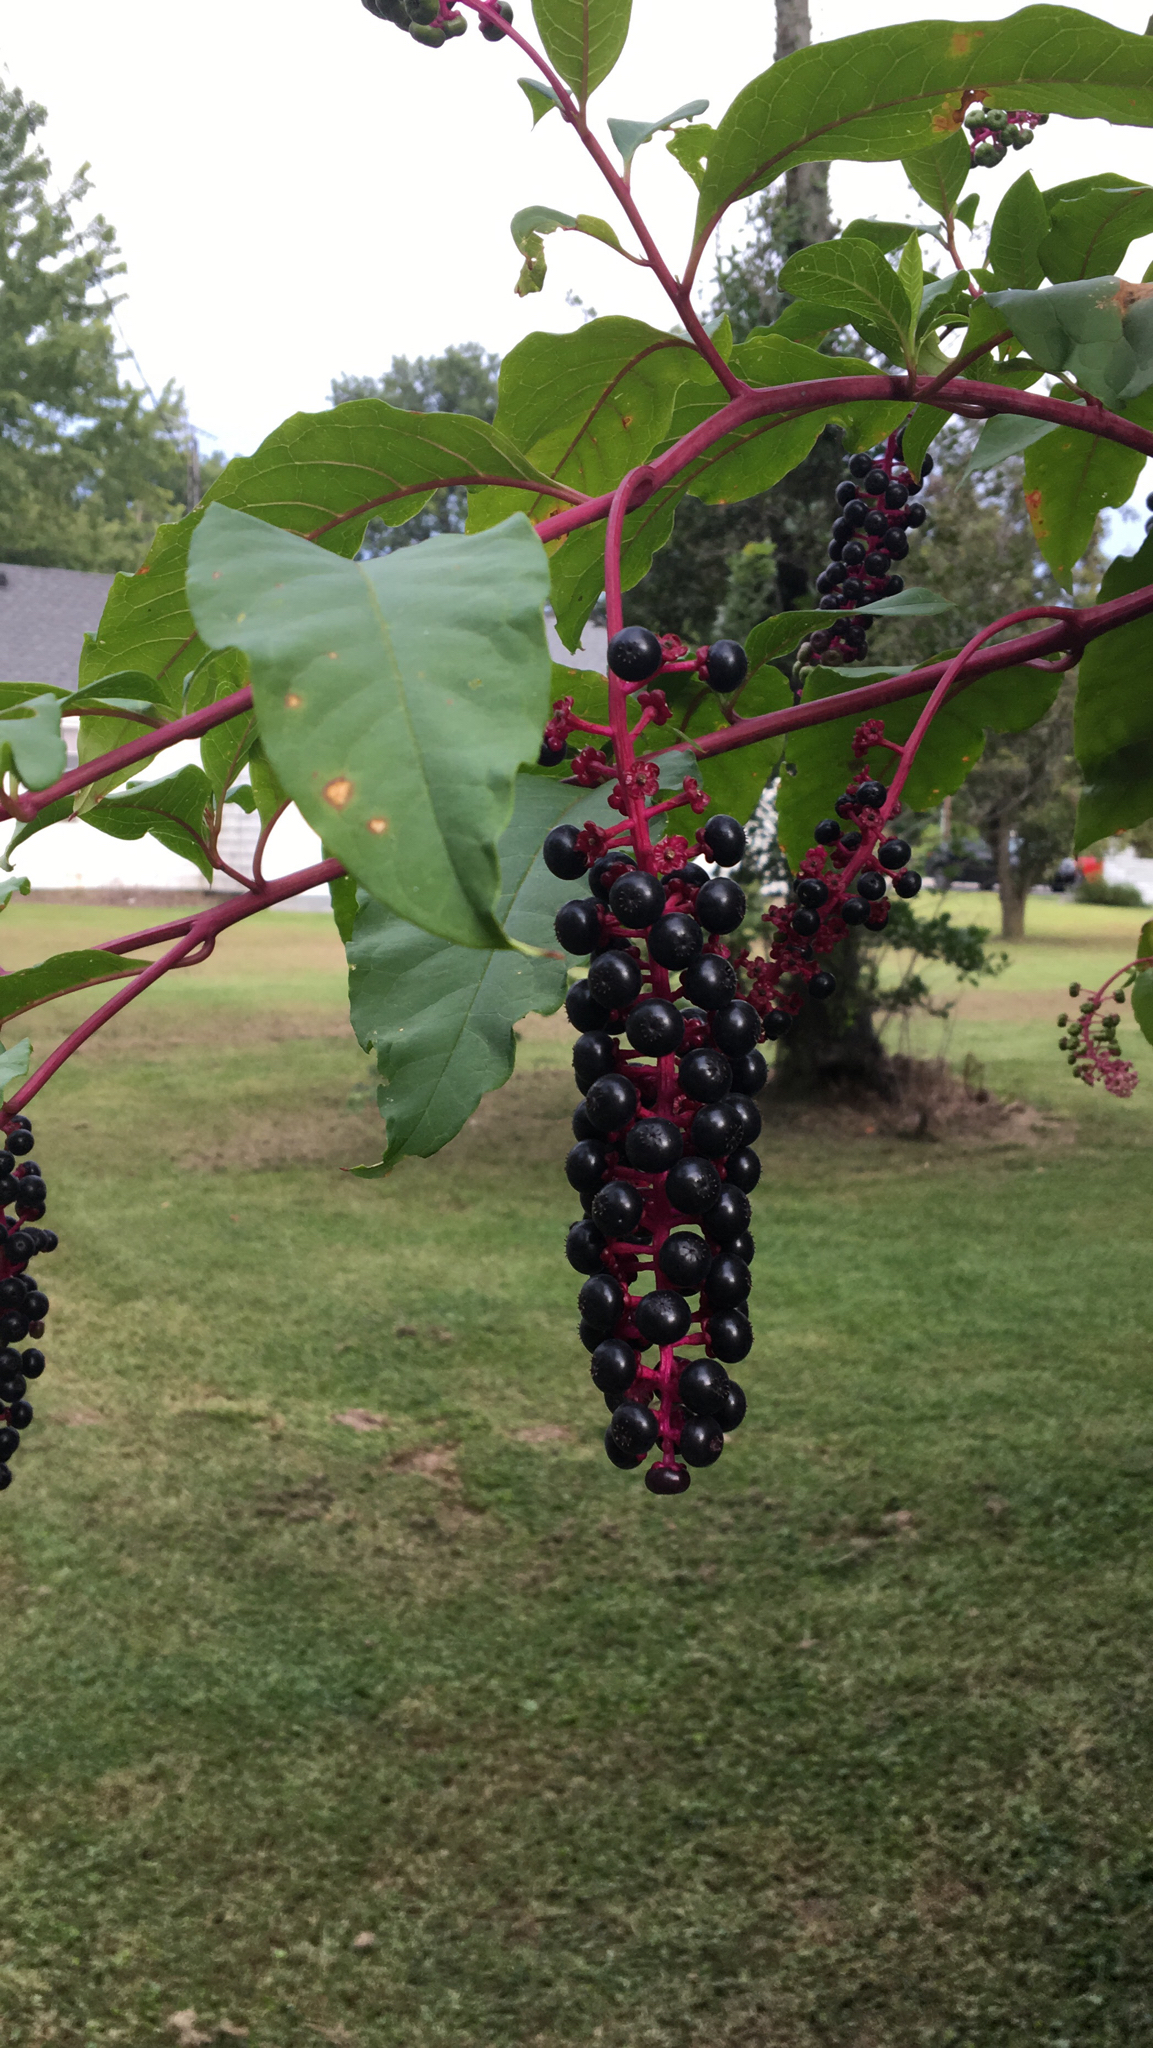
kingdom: Plantae
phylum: Tracheophyta
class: Magnoliopsida
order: Caryophyllales
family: Phytolaccaceae
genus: Phytolacca
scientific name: Phytolacca americana
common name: American pokeweed
